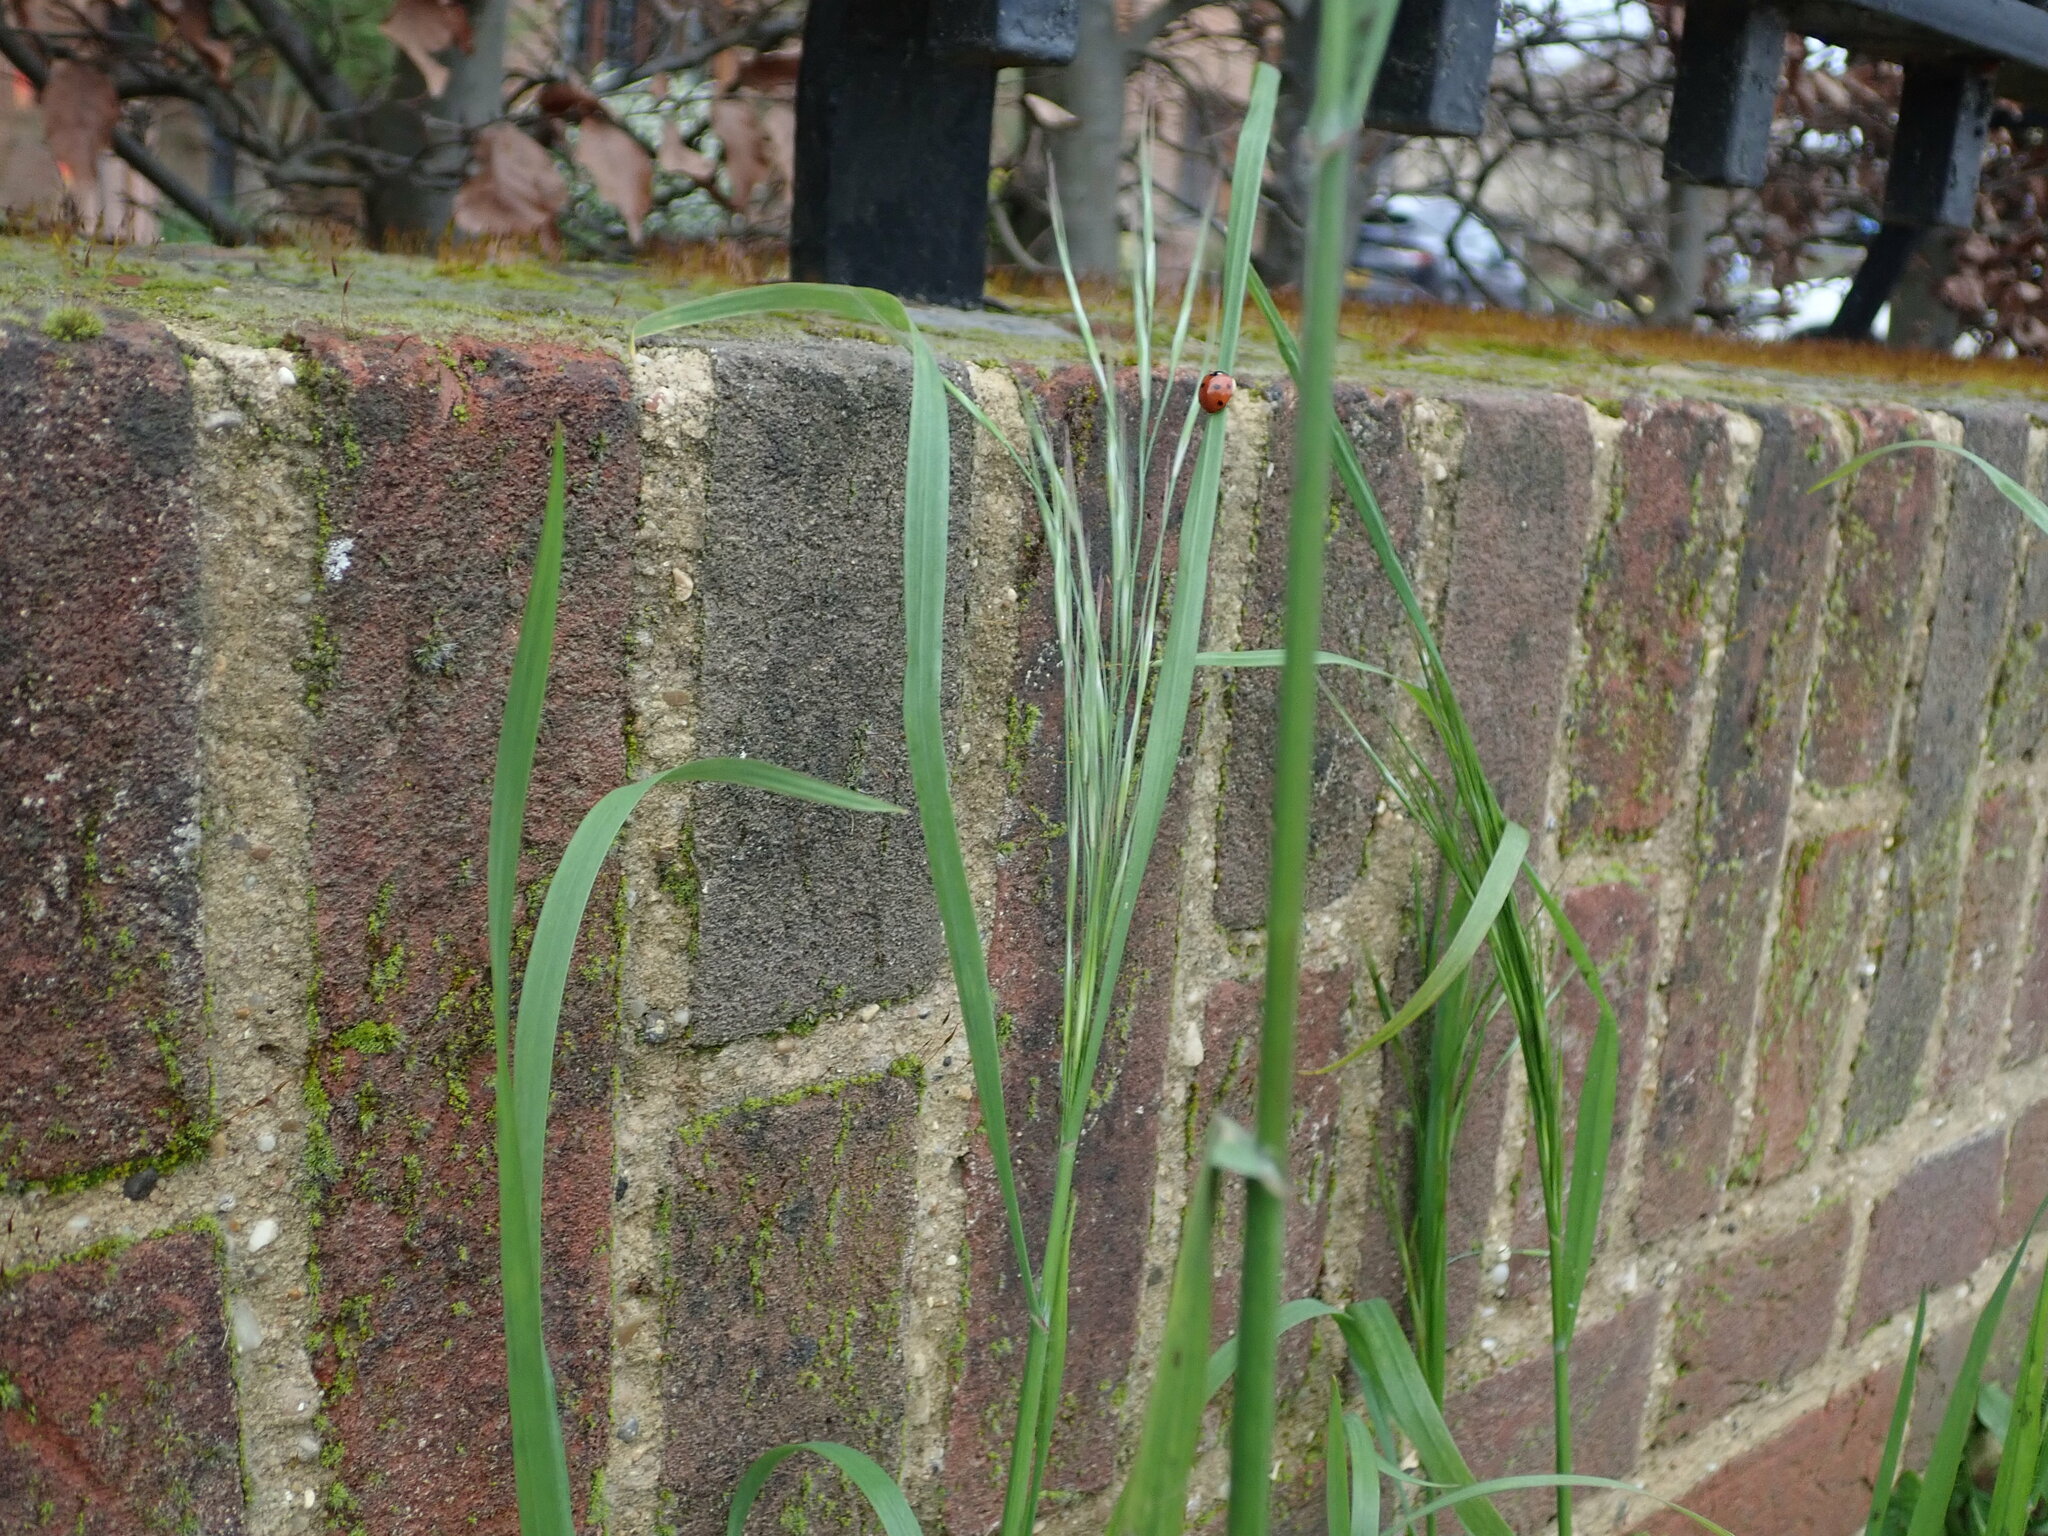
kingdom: Plantae
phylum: Tracheophyta
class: Liliopsida
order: Poales
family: Poaceae
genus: Bromus
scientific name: Bromus sterilis
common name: Poverty brome
